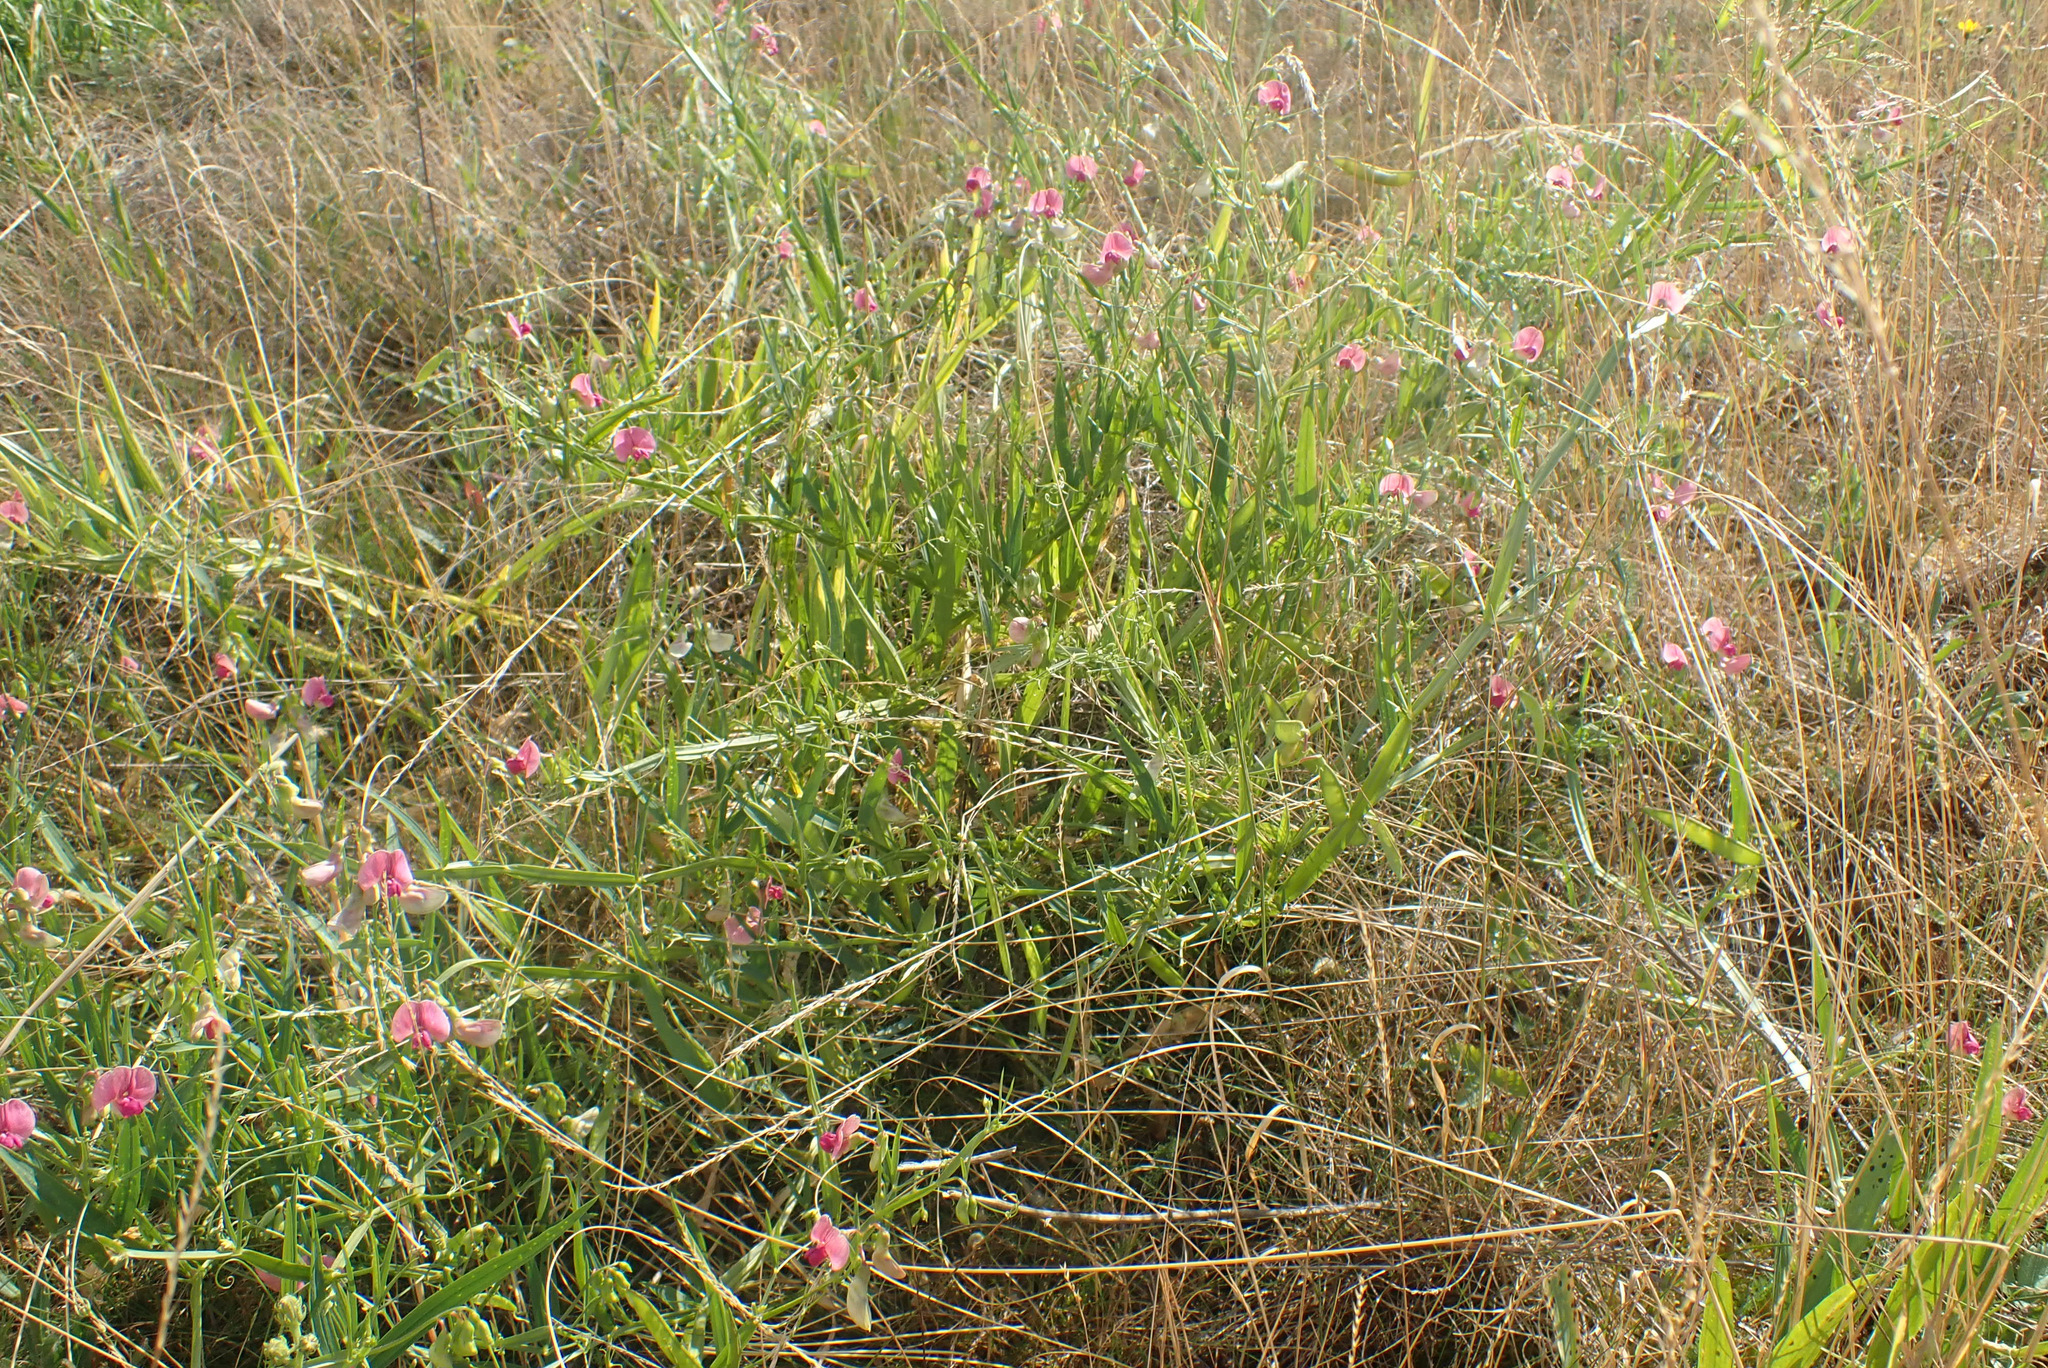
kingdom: Plantae
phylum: Tracheophyta
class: Magnoliopsida
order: Fabales
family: Fabaceae
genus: Lathyrus
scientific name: Lathyrus sylvestris
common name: Flat pea
